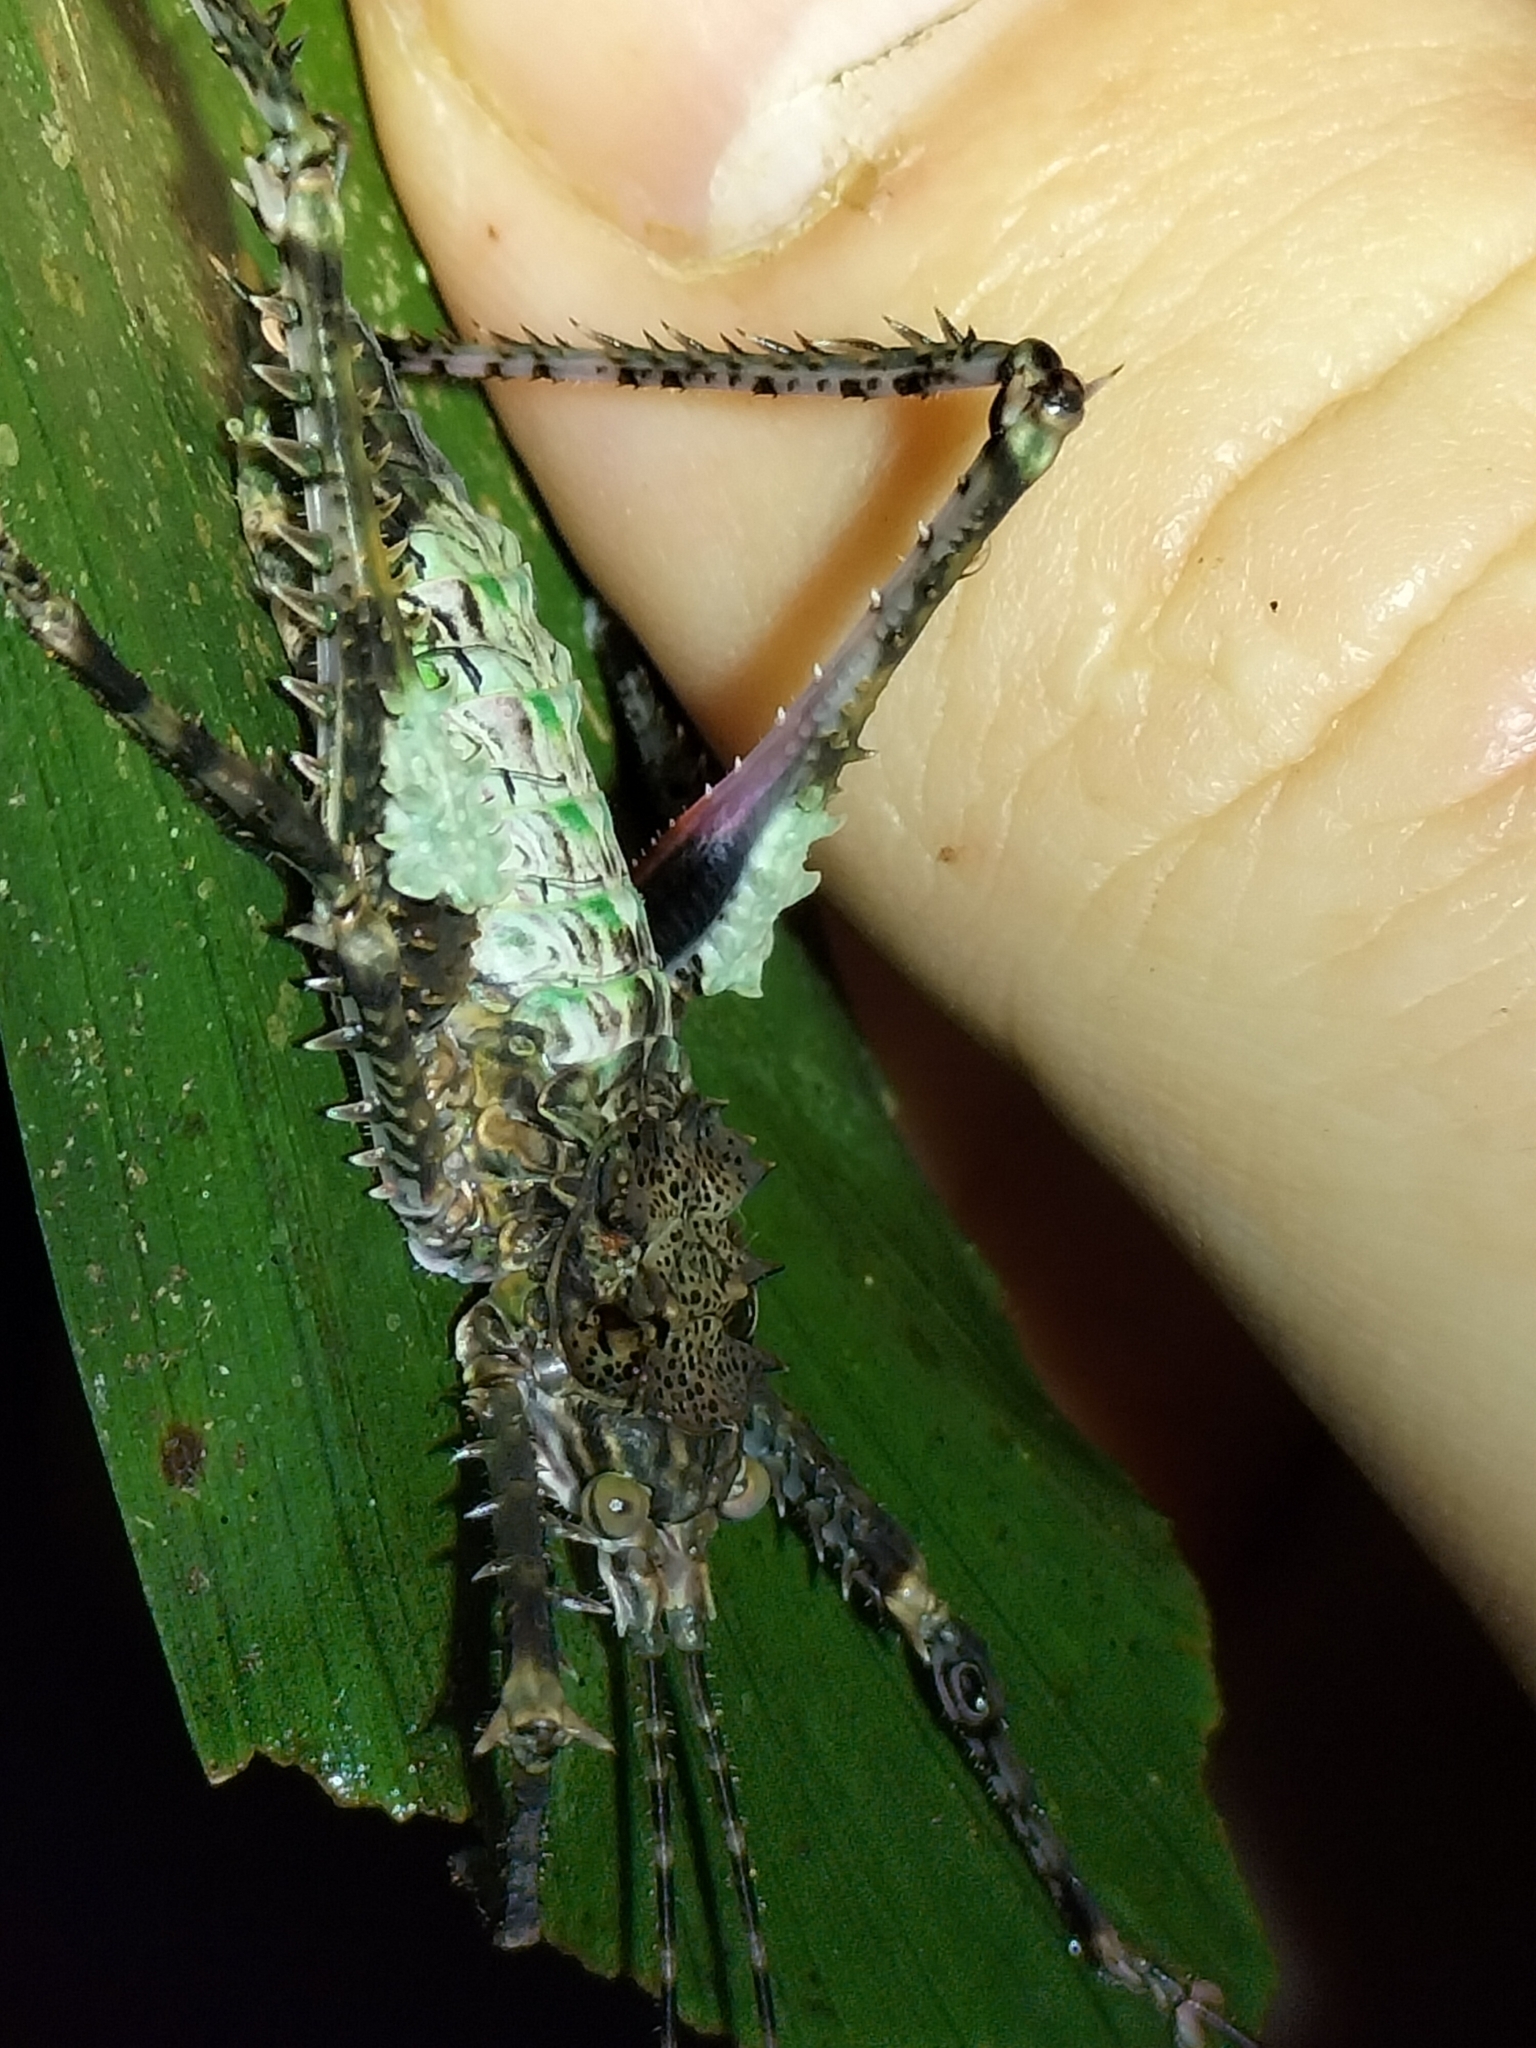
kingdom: Animalia
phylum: Arthropoda
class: Insecta
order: Orthoptera
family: Tettigoniidae
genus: Phricta
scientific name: Phricta spinosa
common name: Giant spiny forest katydid
